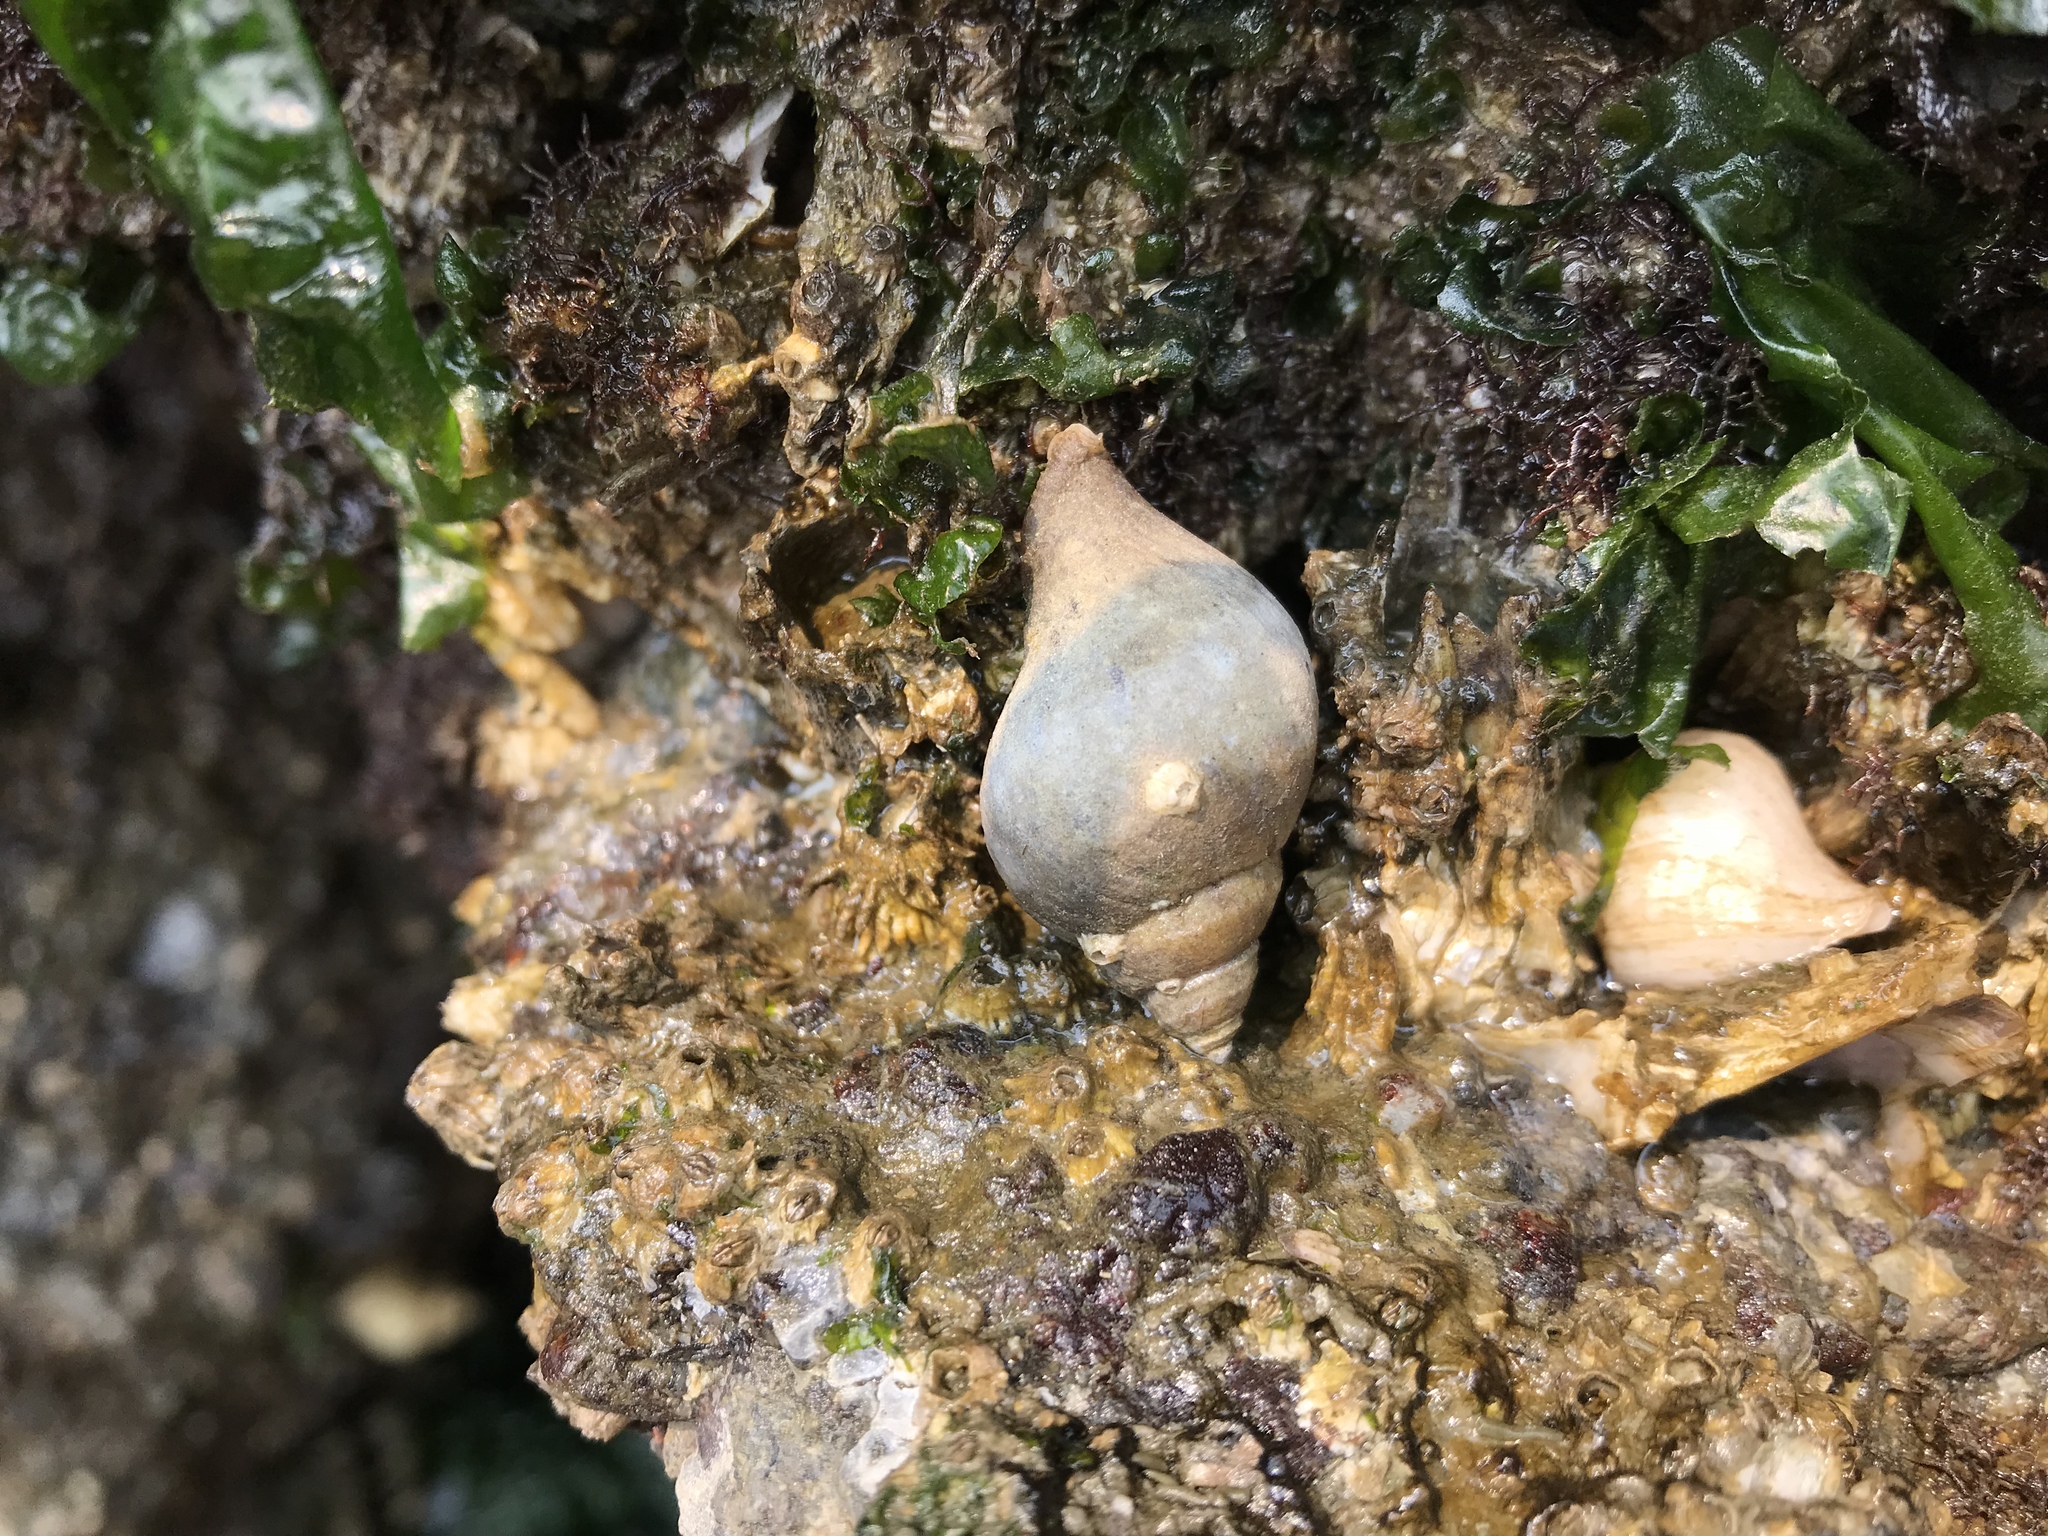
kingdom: Animalia
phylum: Mollusca
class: Gastropoda
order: Neogastropoda
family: Muricidae
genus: Nucella
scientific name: Nucella lamellosa
